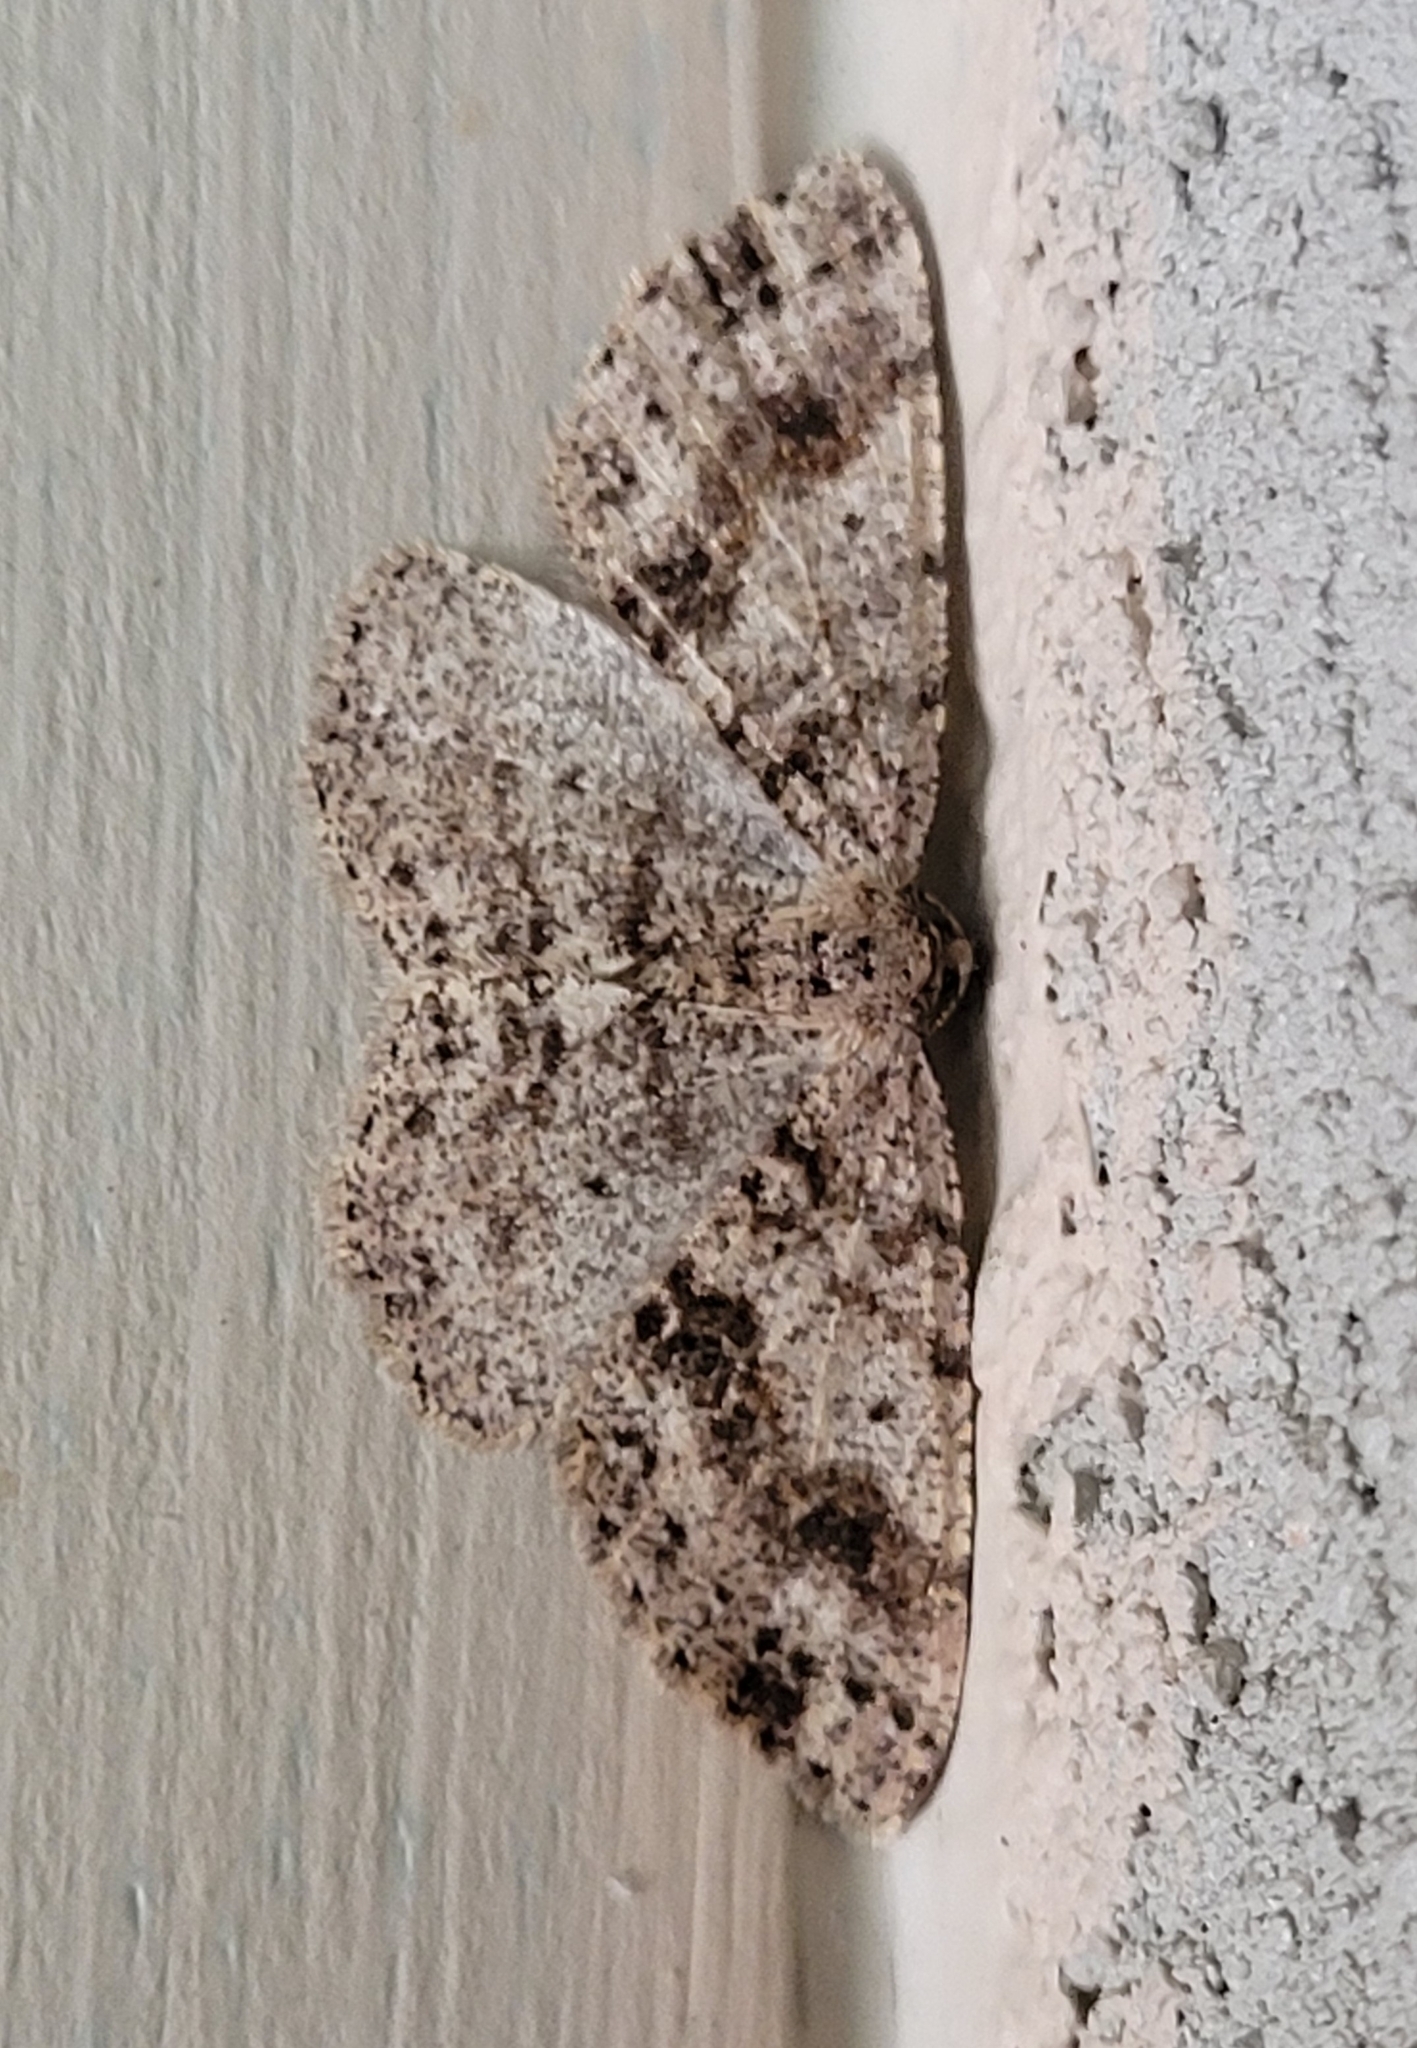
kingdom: Animalia
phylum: Arthropoda
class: Insecta
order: Lepidoptera
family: Geometridae
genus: Melanolophia
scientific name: Melanolophia imitata
